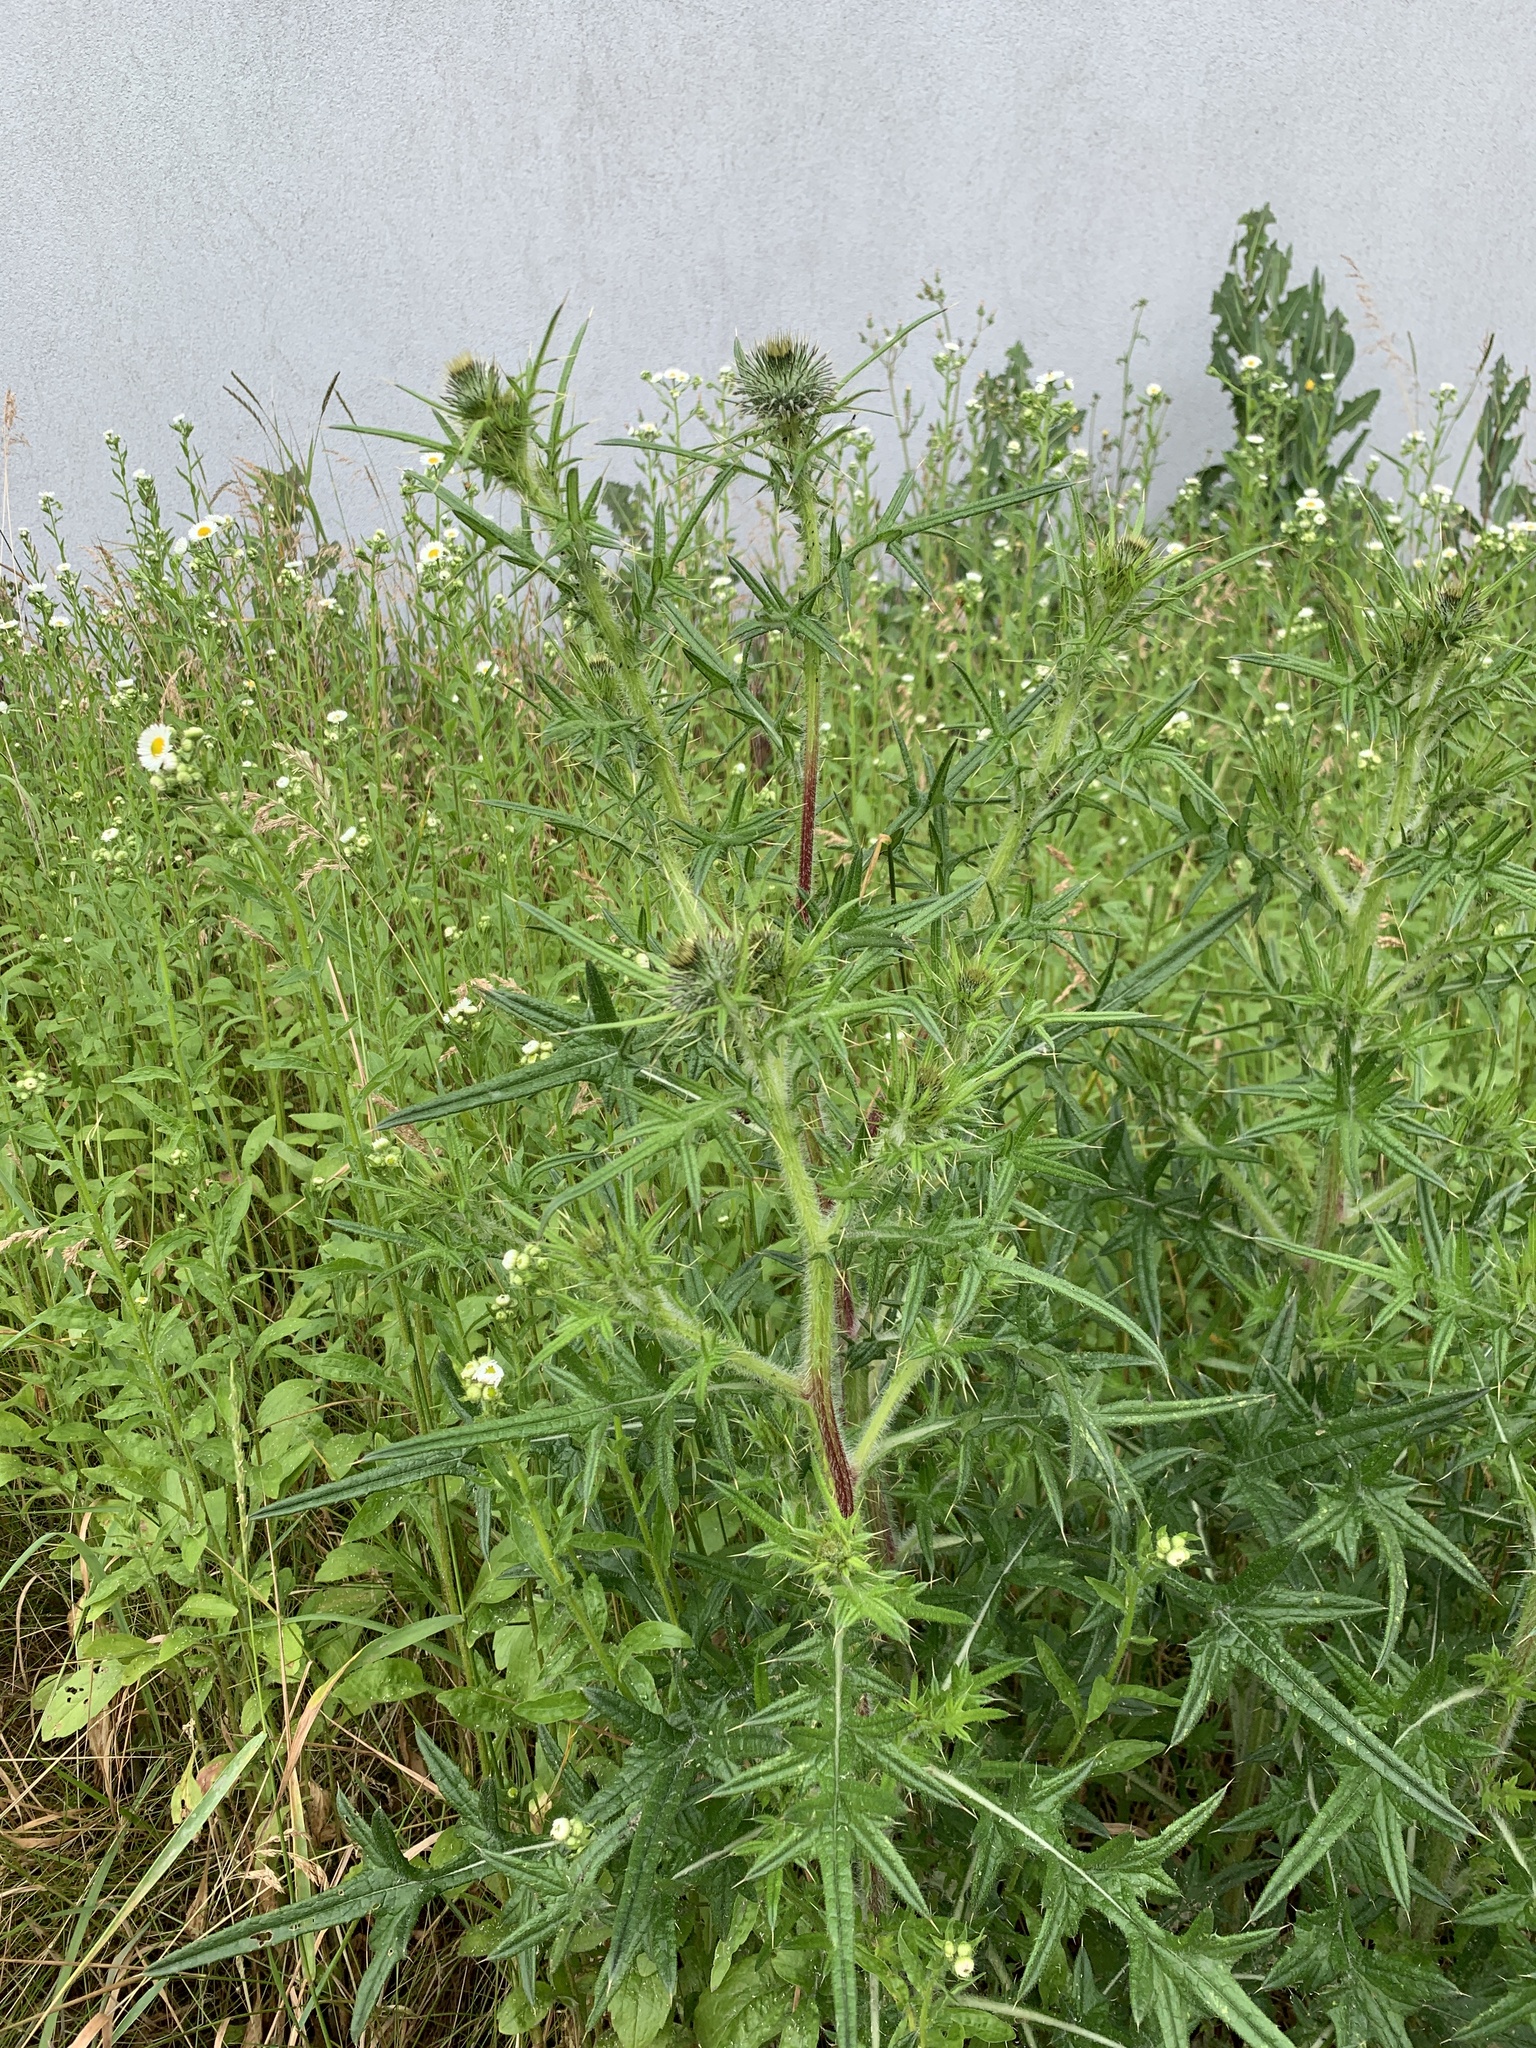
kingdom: Plantae
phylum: Tracheophyta
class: Magnoliopsida
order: Asterales
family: Asteraceae
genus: Cirsium
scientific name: Cirsium vulgare
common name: Bull thistle
